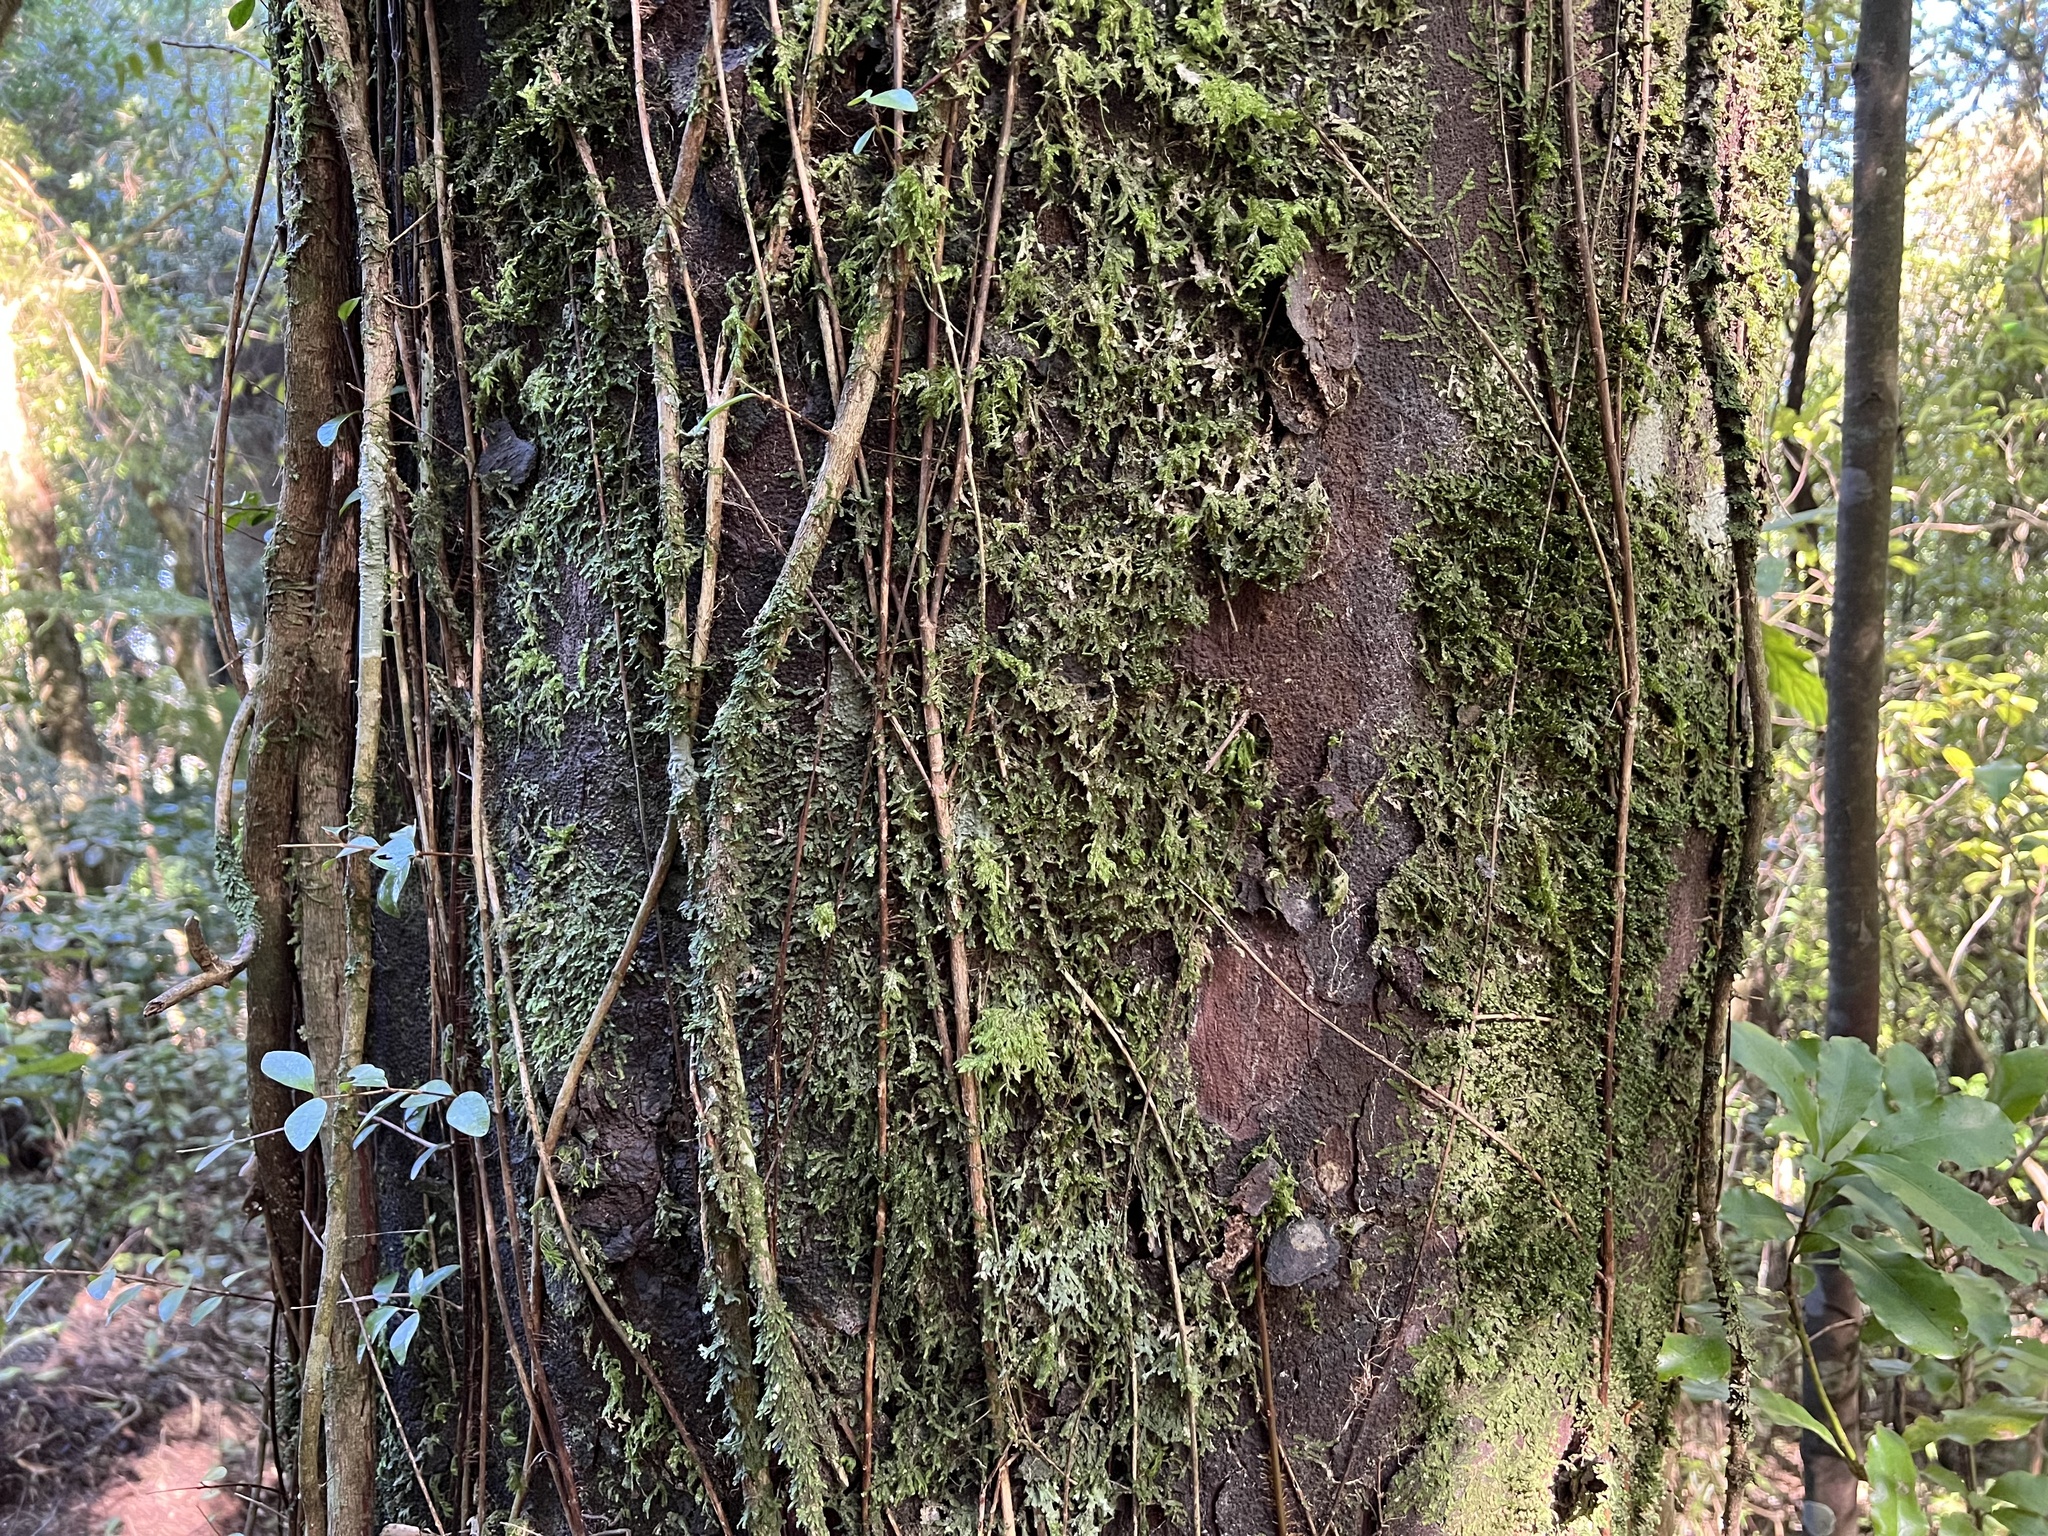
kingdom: Plantae
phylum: Tracheophyta
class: Pinopsida
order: Pinales
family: Podocarpaceae
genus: Prumnopitys
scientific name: Prumnopitys ferruginea
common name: Brown pine
